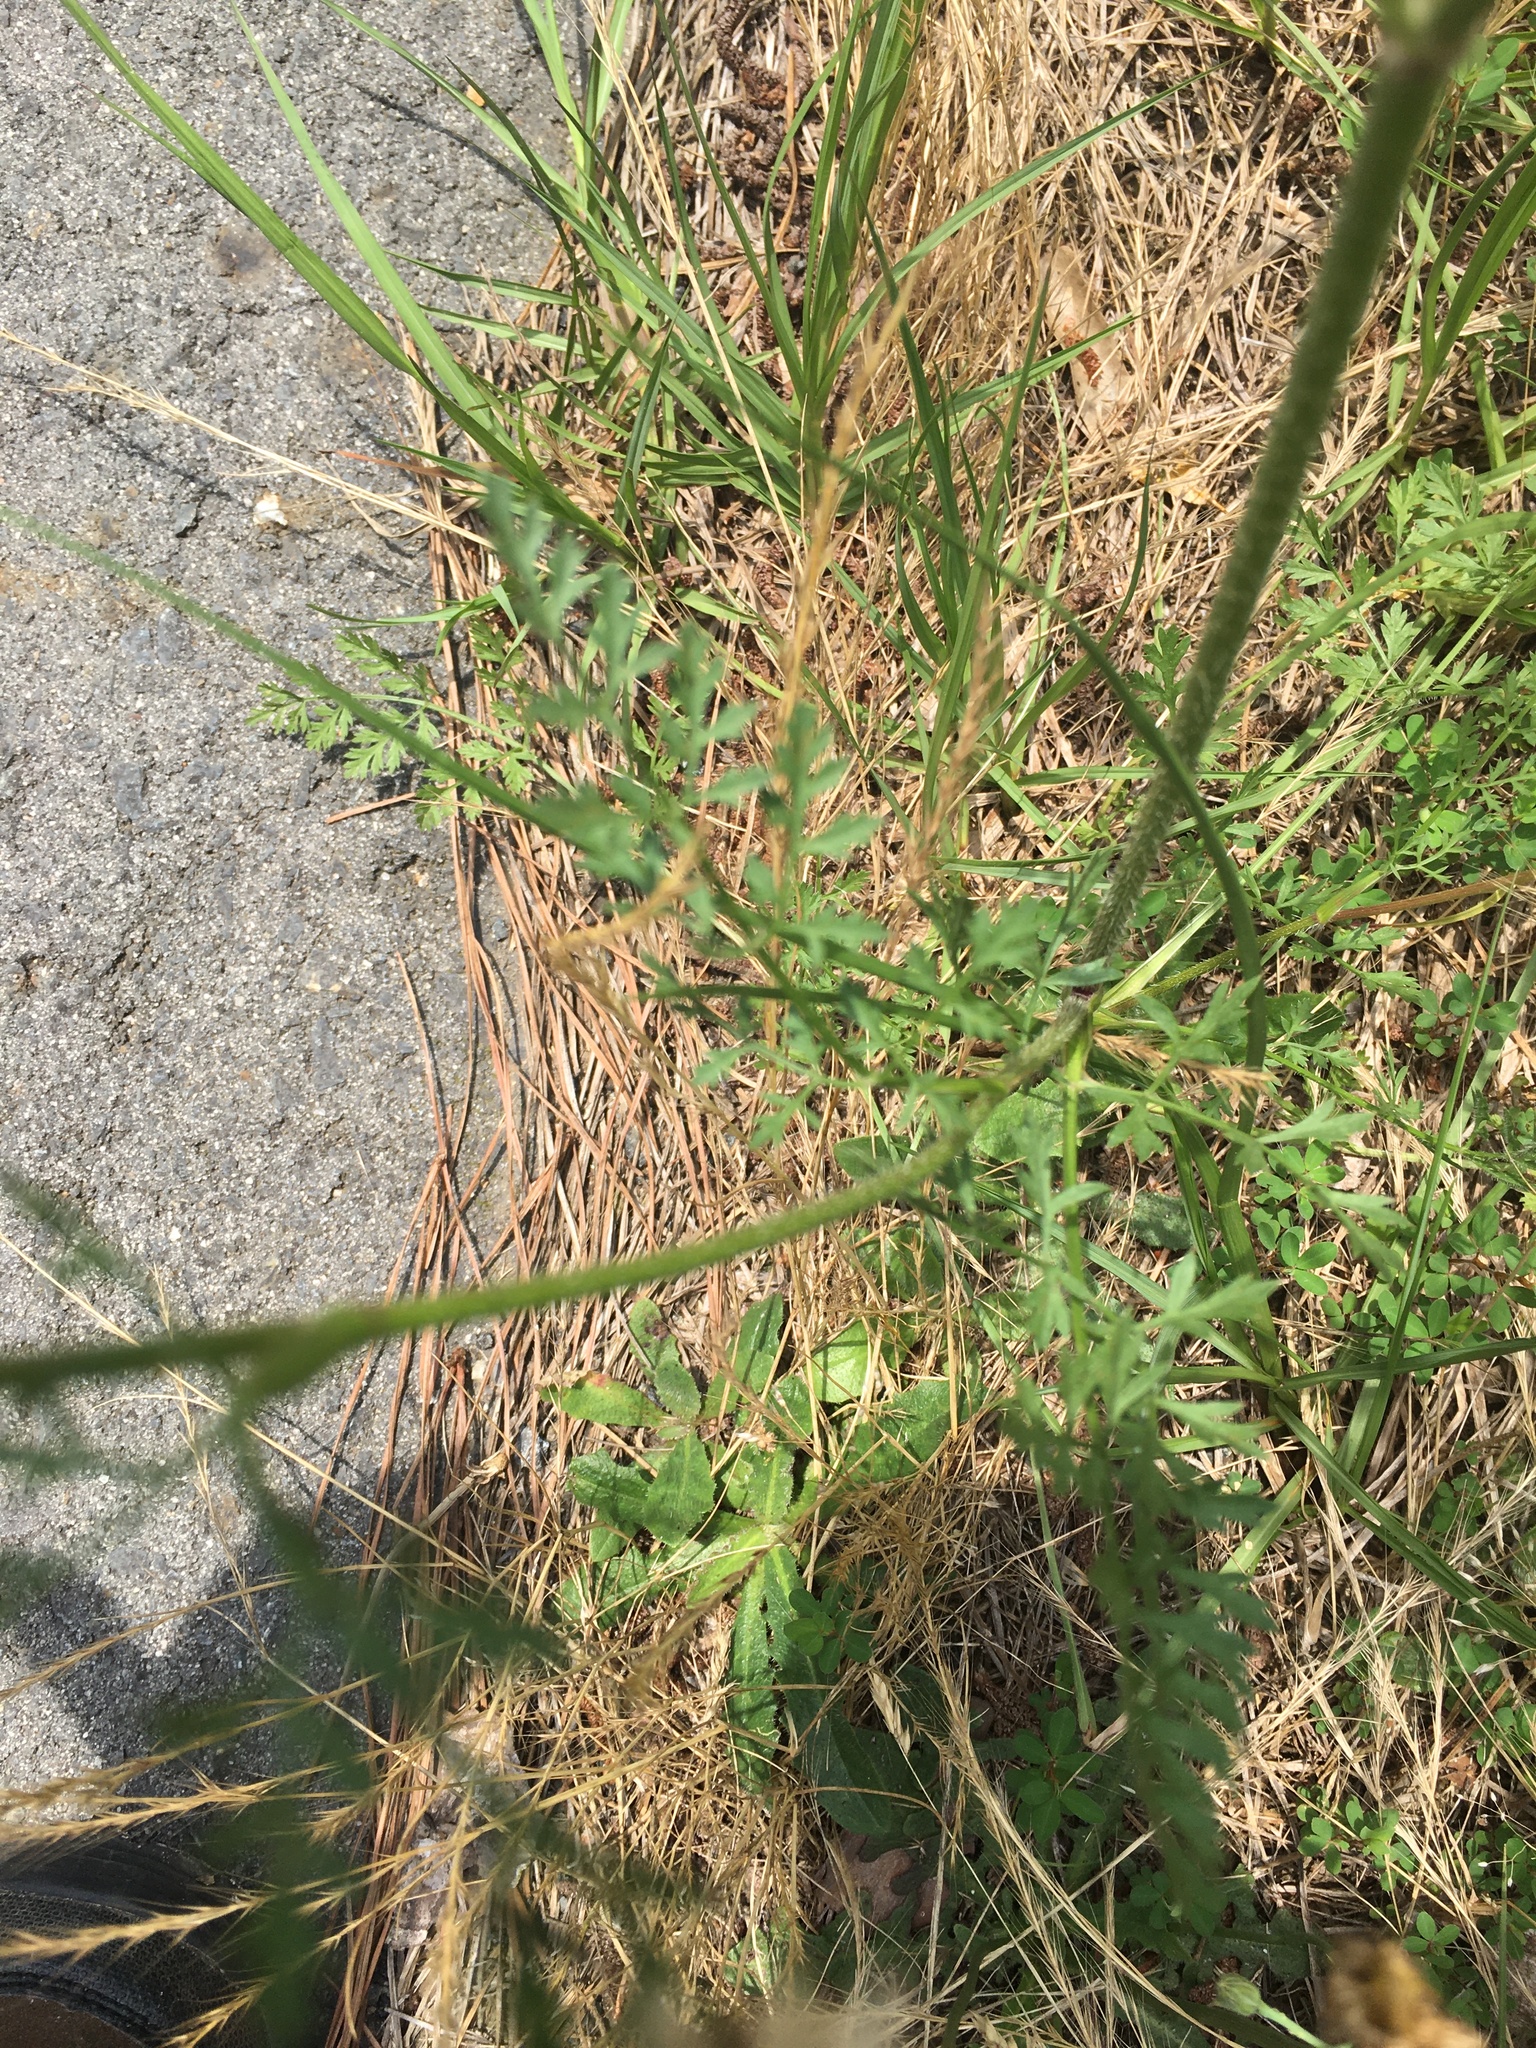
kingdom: Plantae
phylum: Tracheophyta
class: Magnoliopsida
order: Apiales
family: Apiaceae
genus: Daucus
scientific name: Daucus carota
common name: Wild carrot
